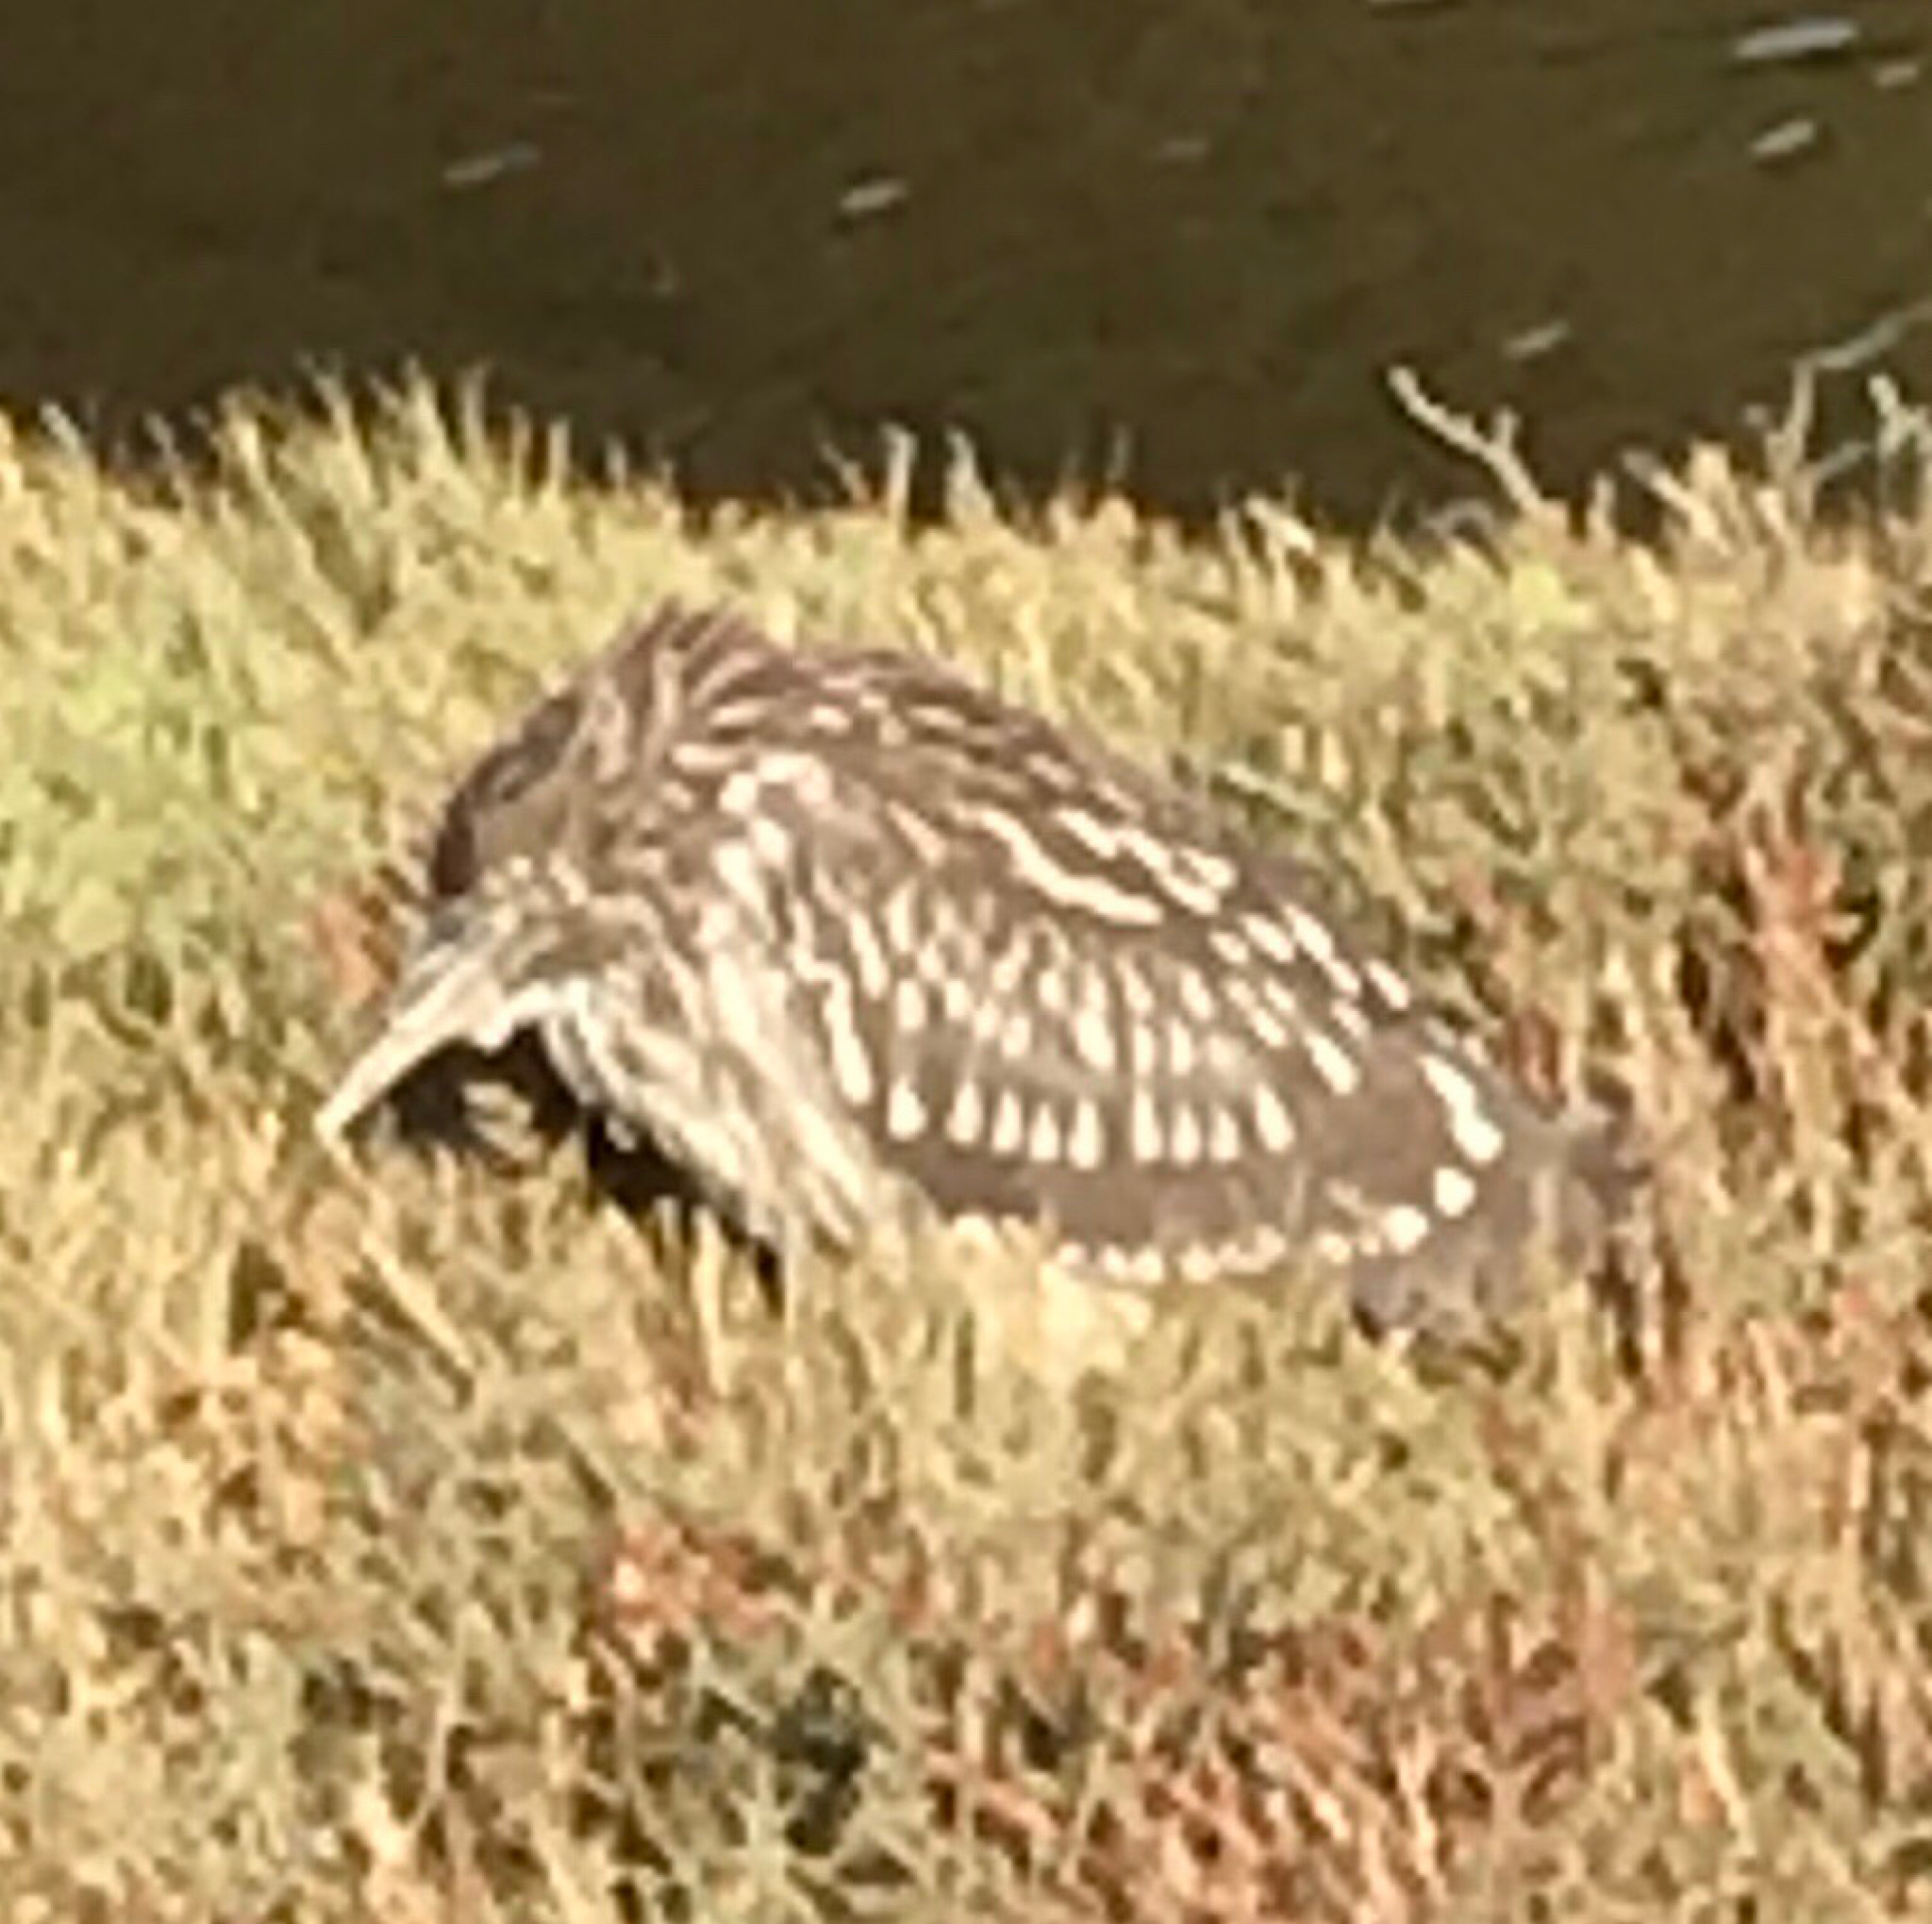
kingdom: Animalia
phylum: Chordata
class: Aves
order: Pelecaniformes
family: Ardeidae
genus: Nycticorax
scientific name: Nycticorax nycticorax
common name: Black-crowned night heron
